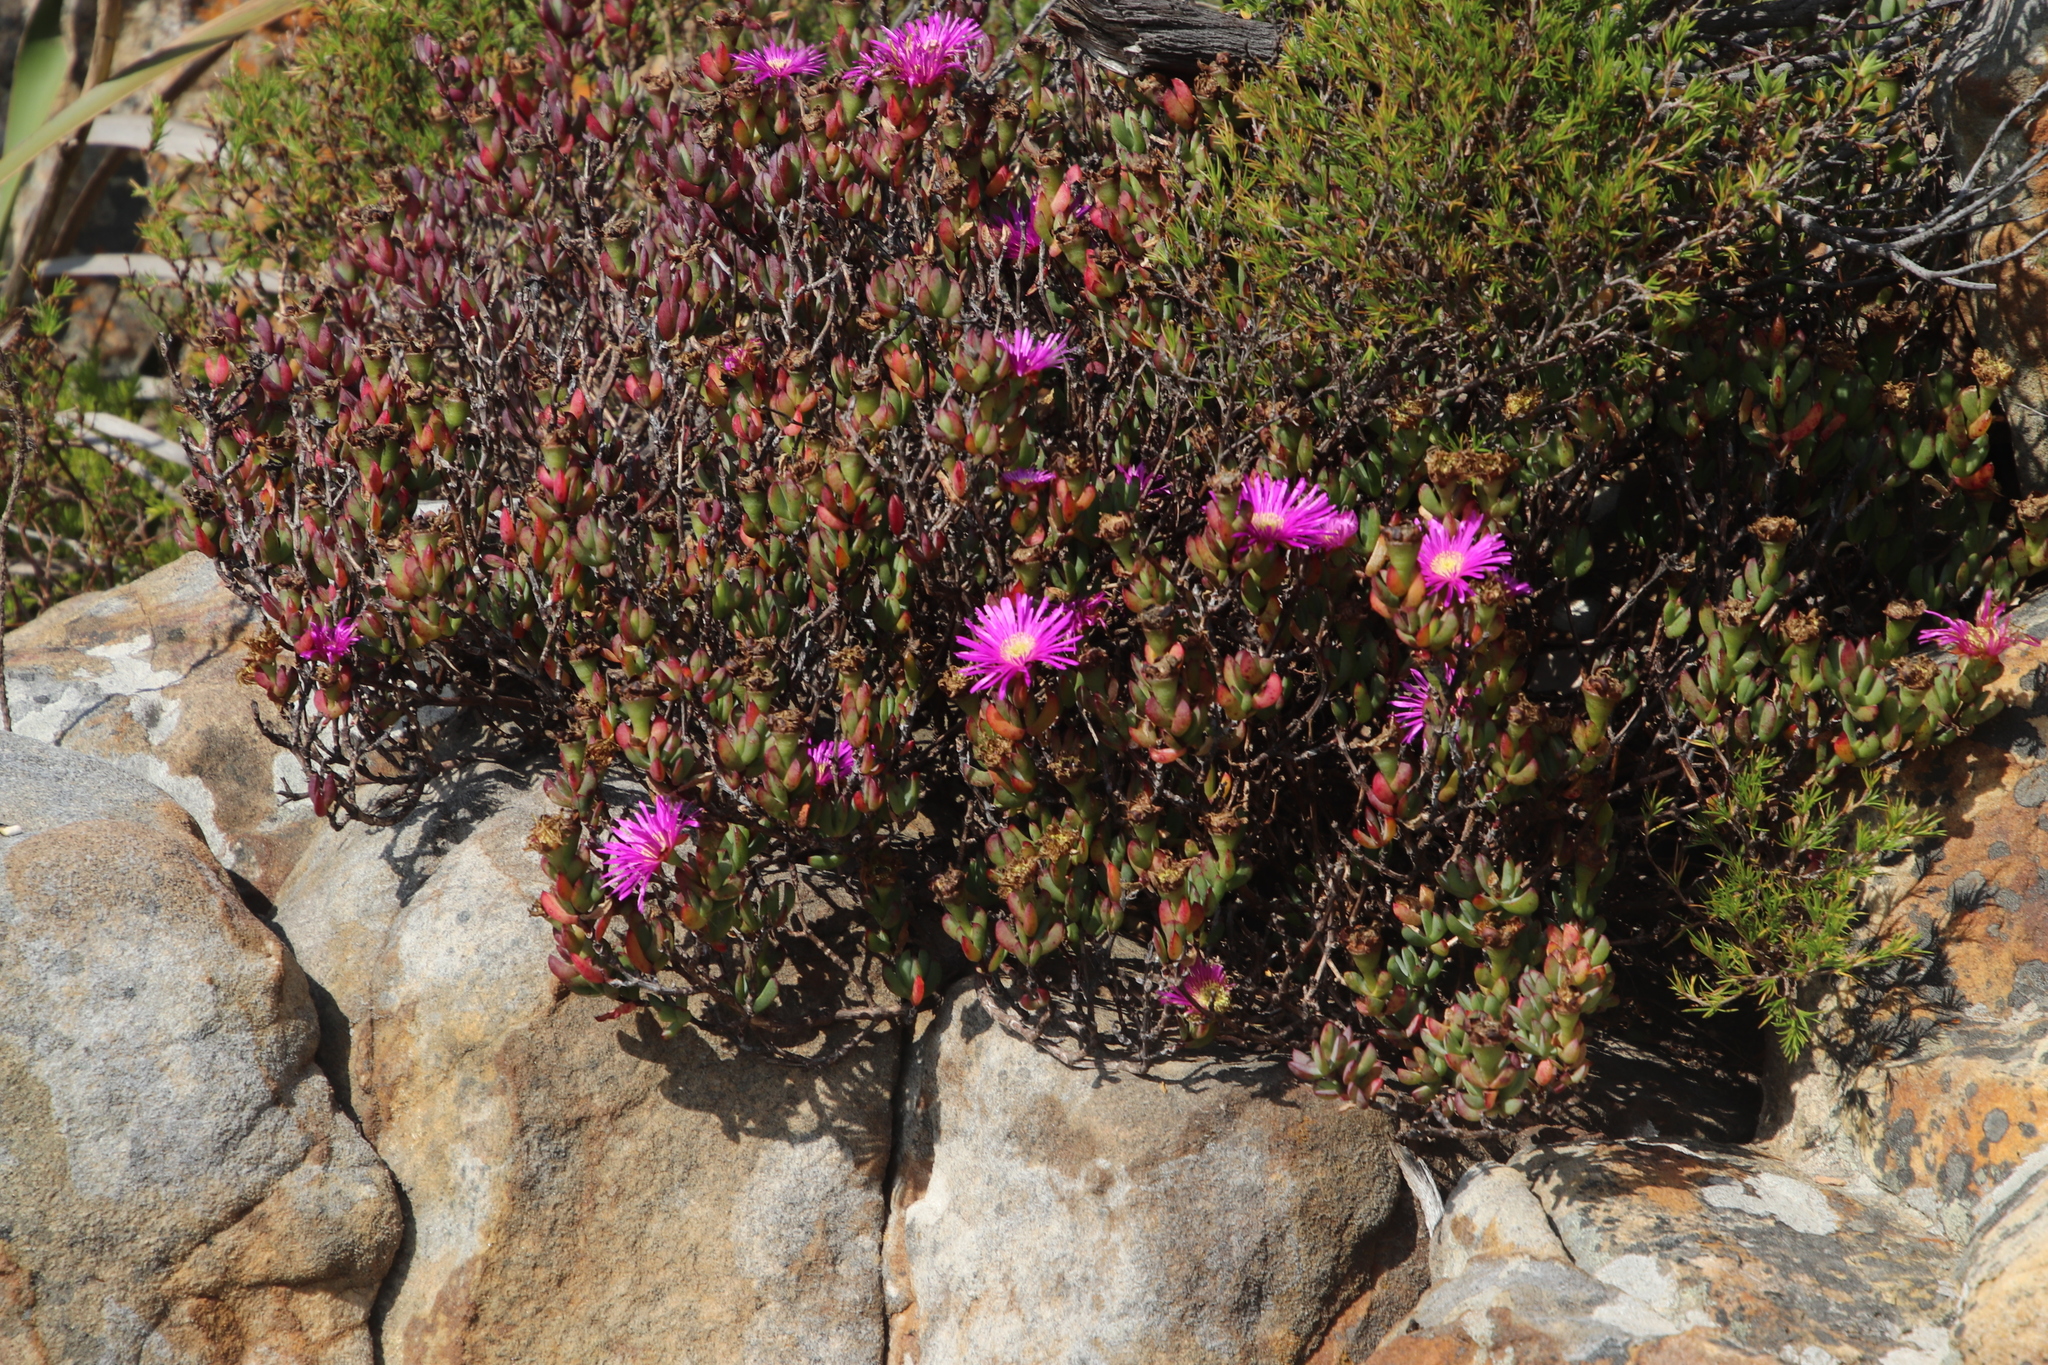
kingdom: Plantae
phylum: Tracheophyta
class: Magnoliopsida
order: Caryophyllales
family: Aizoaceae
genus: Oscularia
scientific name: Oscularia falciformis
